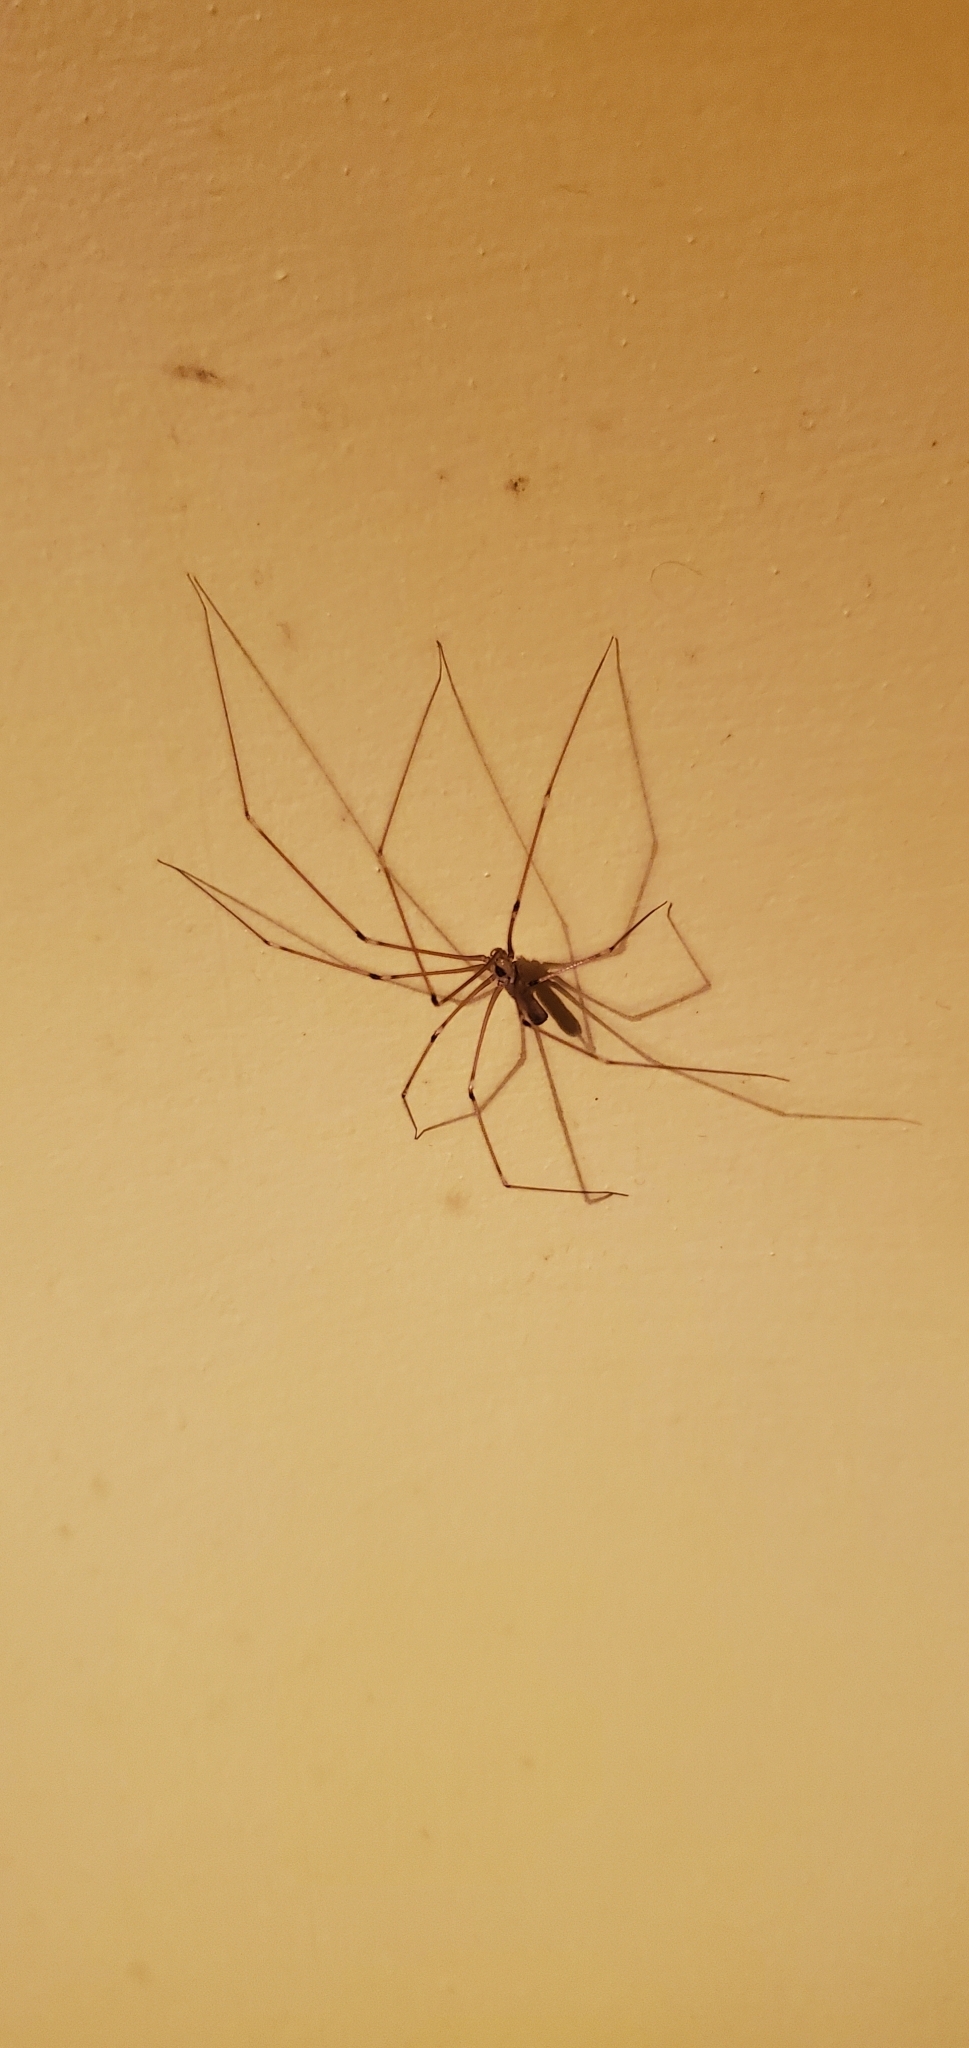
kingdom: Animalia
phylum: Arthropoda
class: Arachnida
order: Araneae
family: Pholcidae
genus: Pholcus
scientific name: Pholcus phalangioides
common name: Longbodied cellar spider
